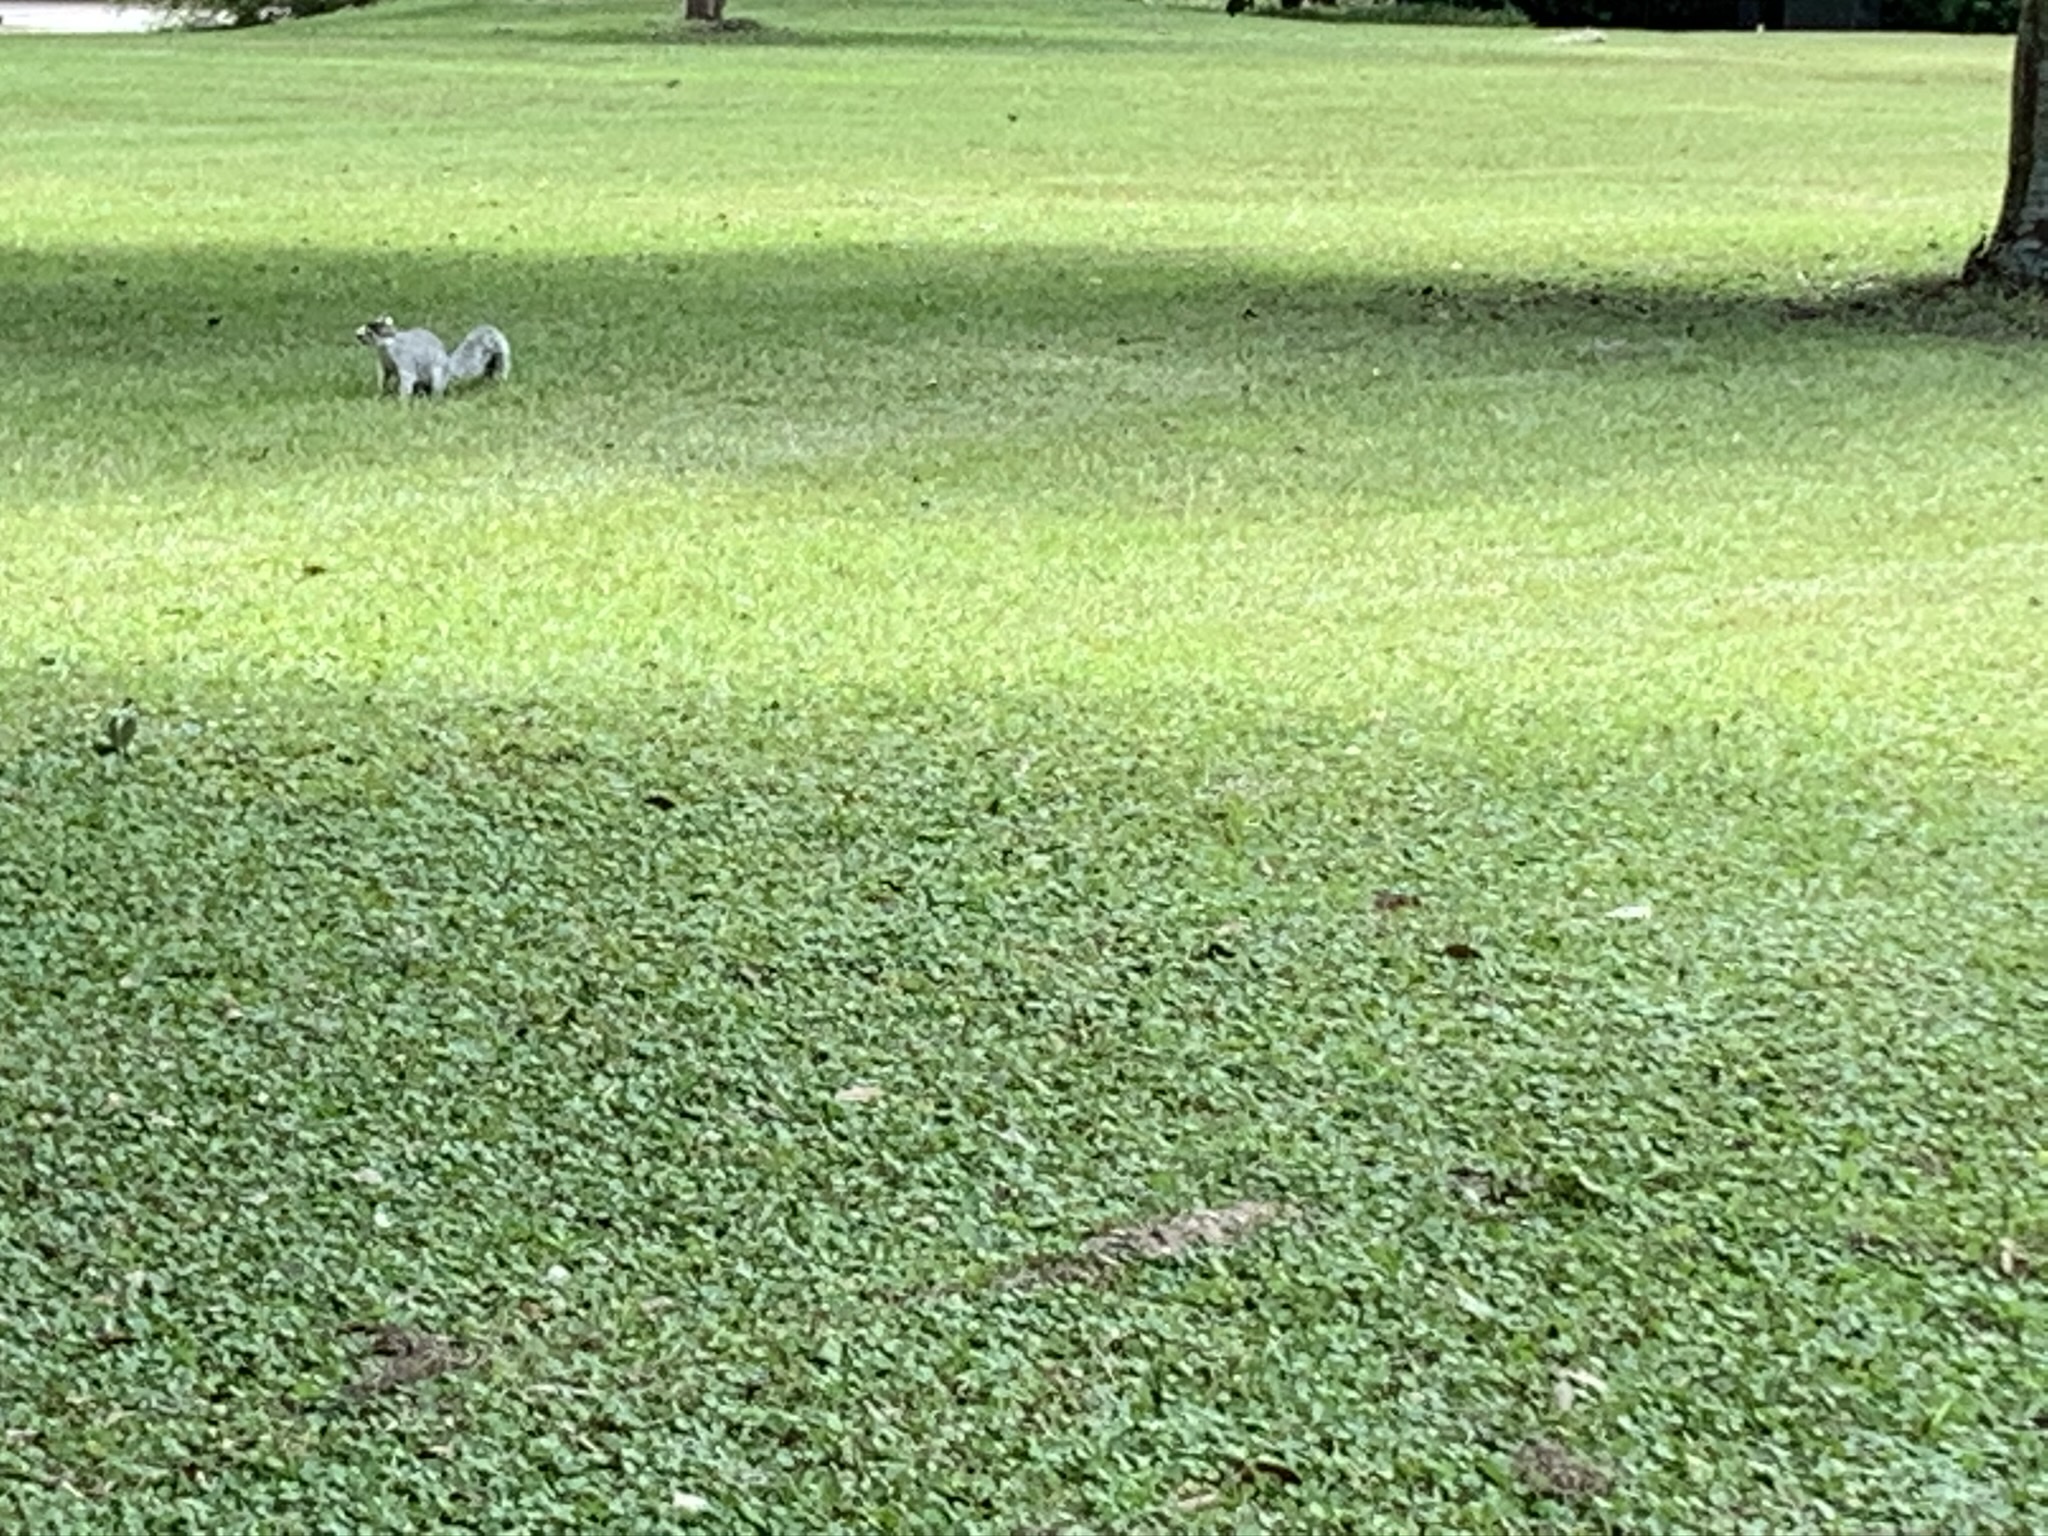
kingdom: Animalia
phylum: Chordata
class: Mammalia
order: Rodentia
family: Sciuridae
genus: Sciurus
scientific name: Sciurus niger
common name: Fox squirrel
